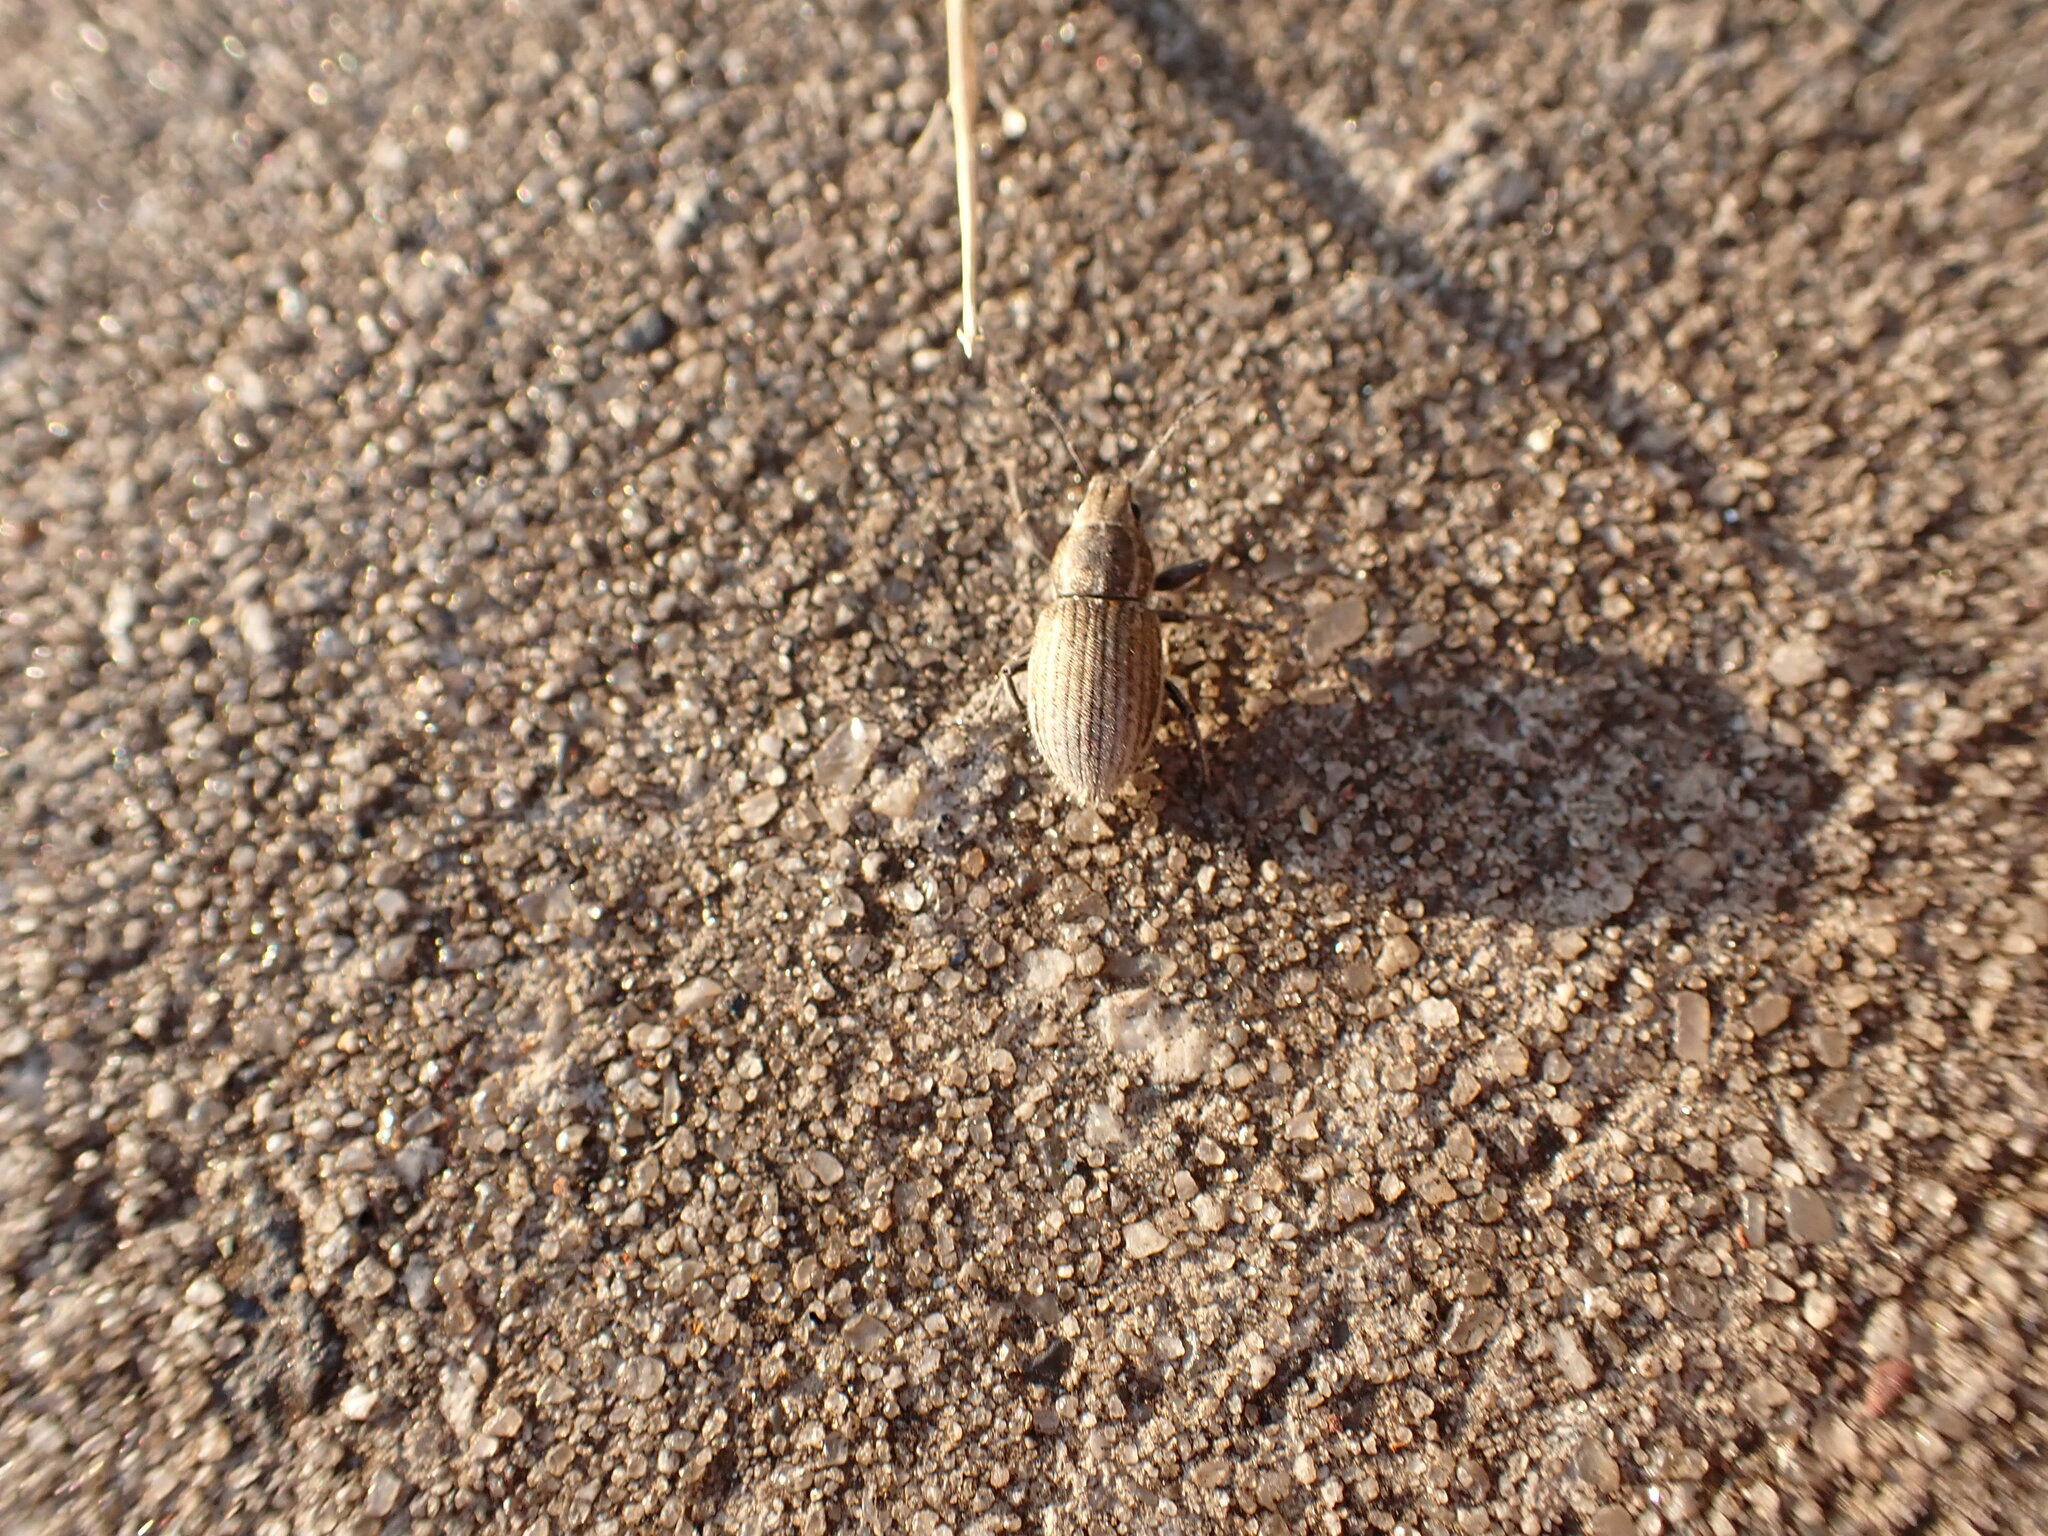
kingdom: Animalia
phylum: Arthropoda
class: Insecta
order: Coleoptera
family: Curculionidae
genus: Naupactus
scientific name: Naupactus leucoloma
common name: Whitefringed beetle
